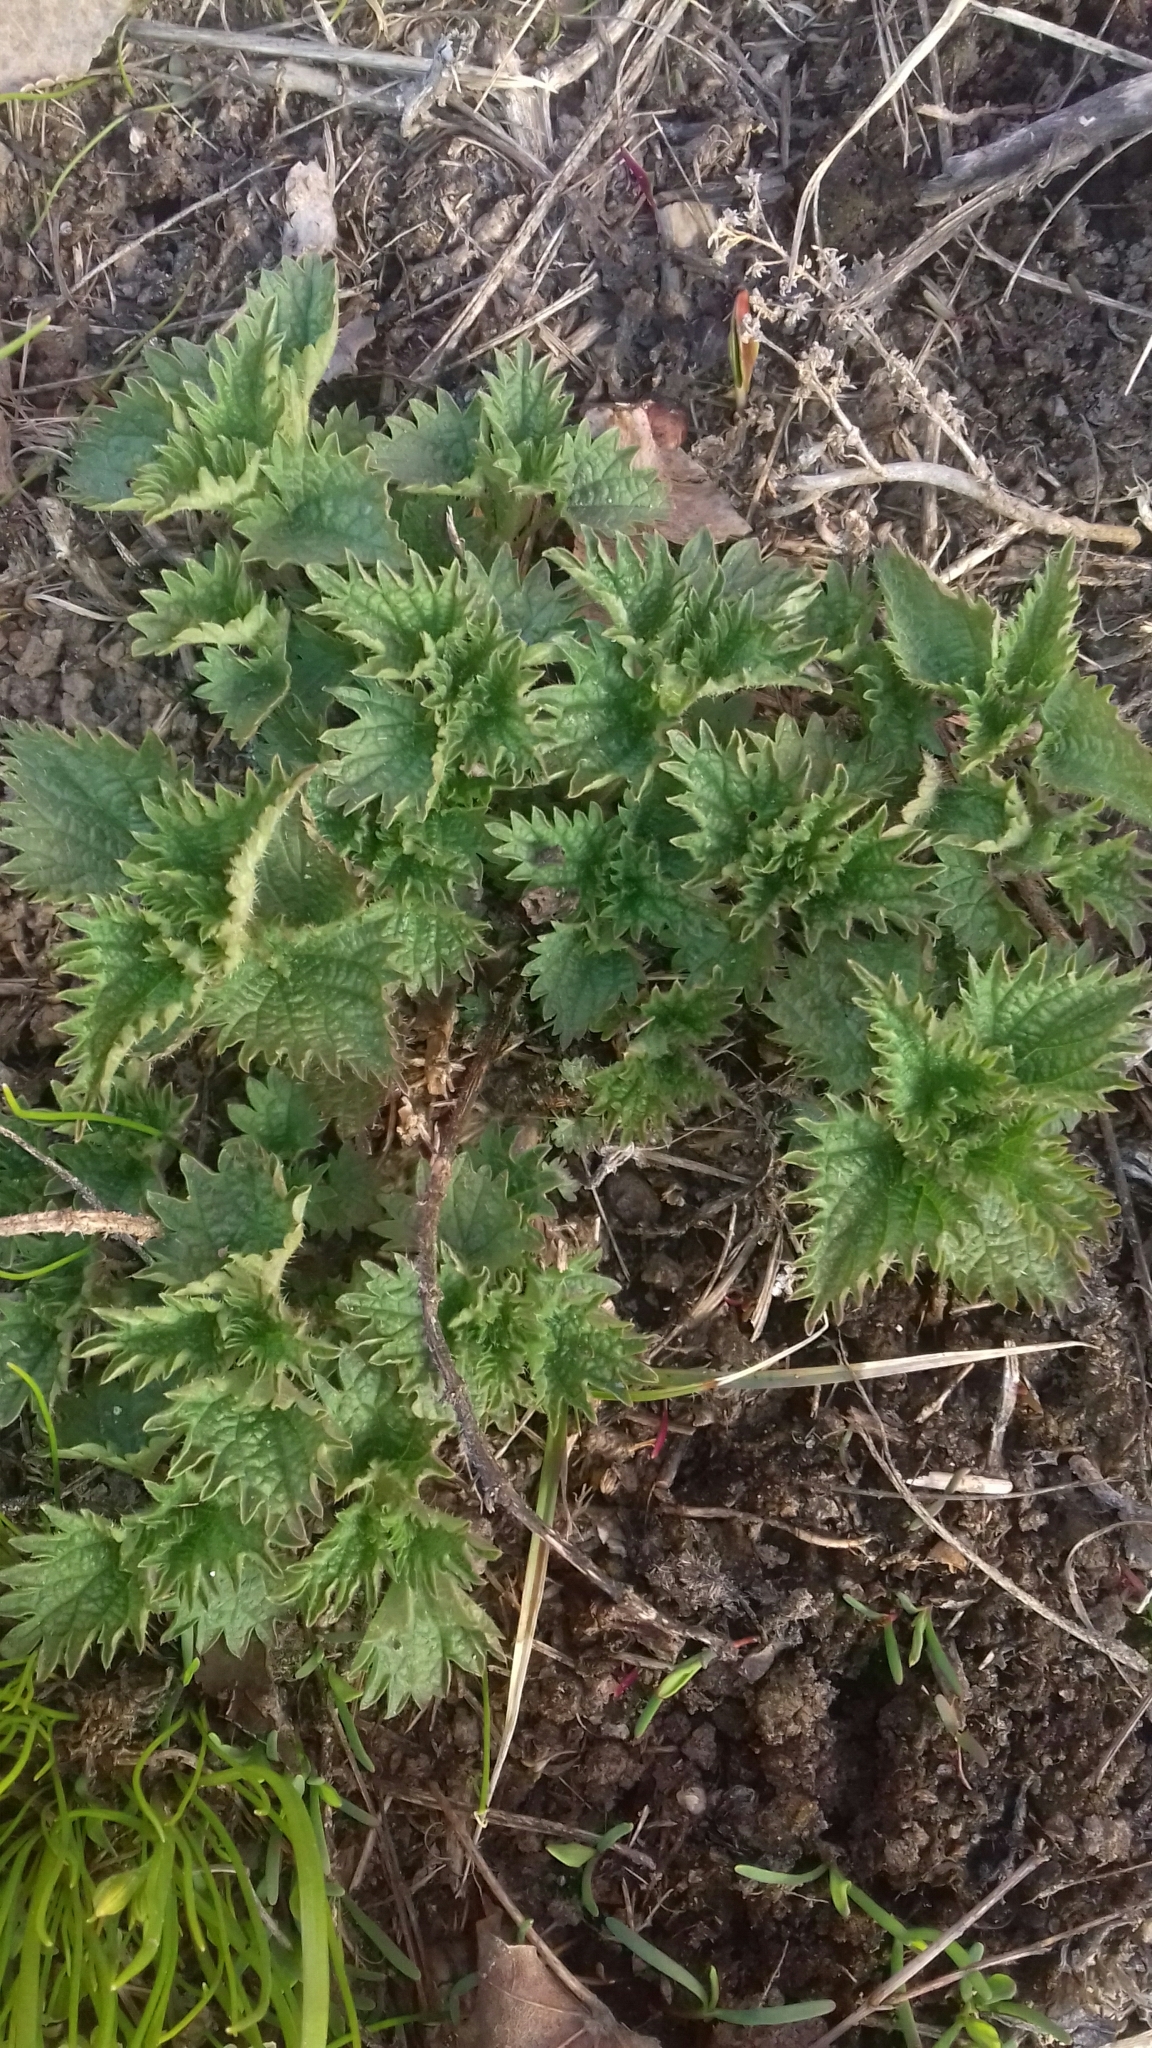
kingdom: Plantae
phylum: Tracheophyta
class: Magnoliopsida
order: Rosales
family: Urticaceae
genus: Urtica
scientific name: Urtica dioica
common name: Common nettle
